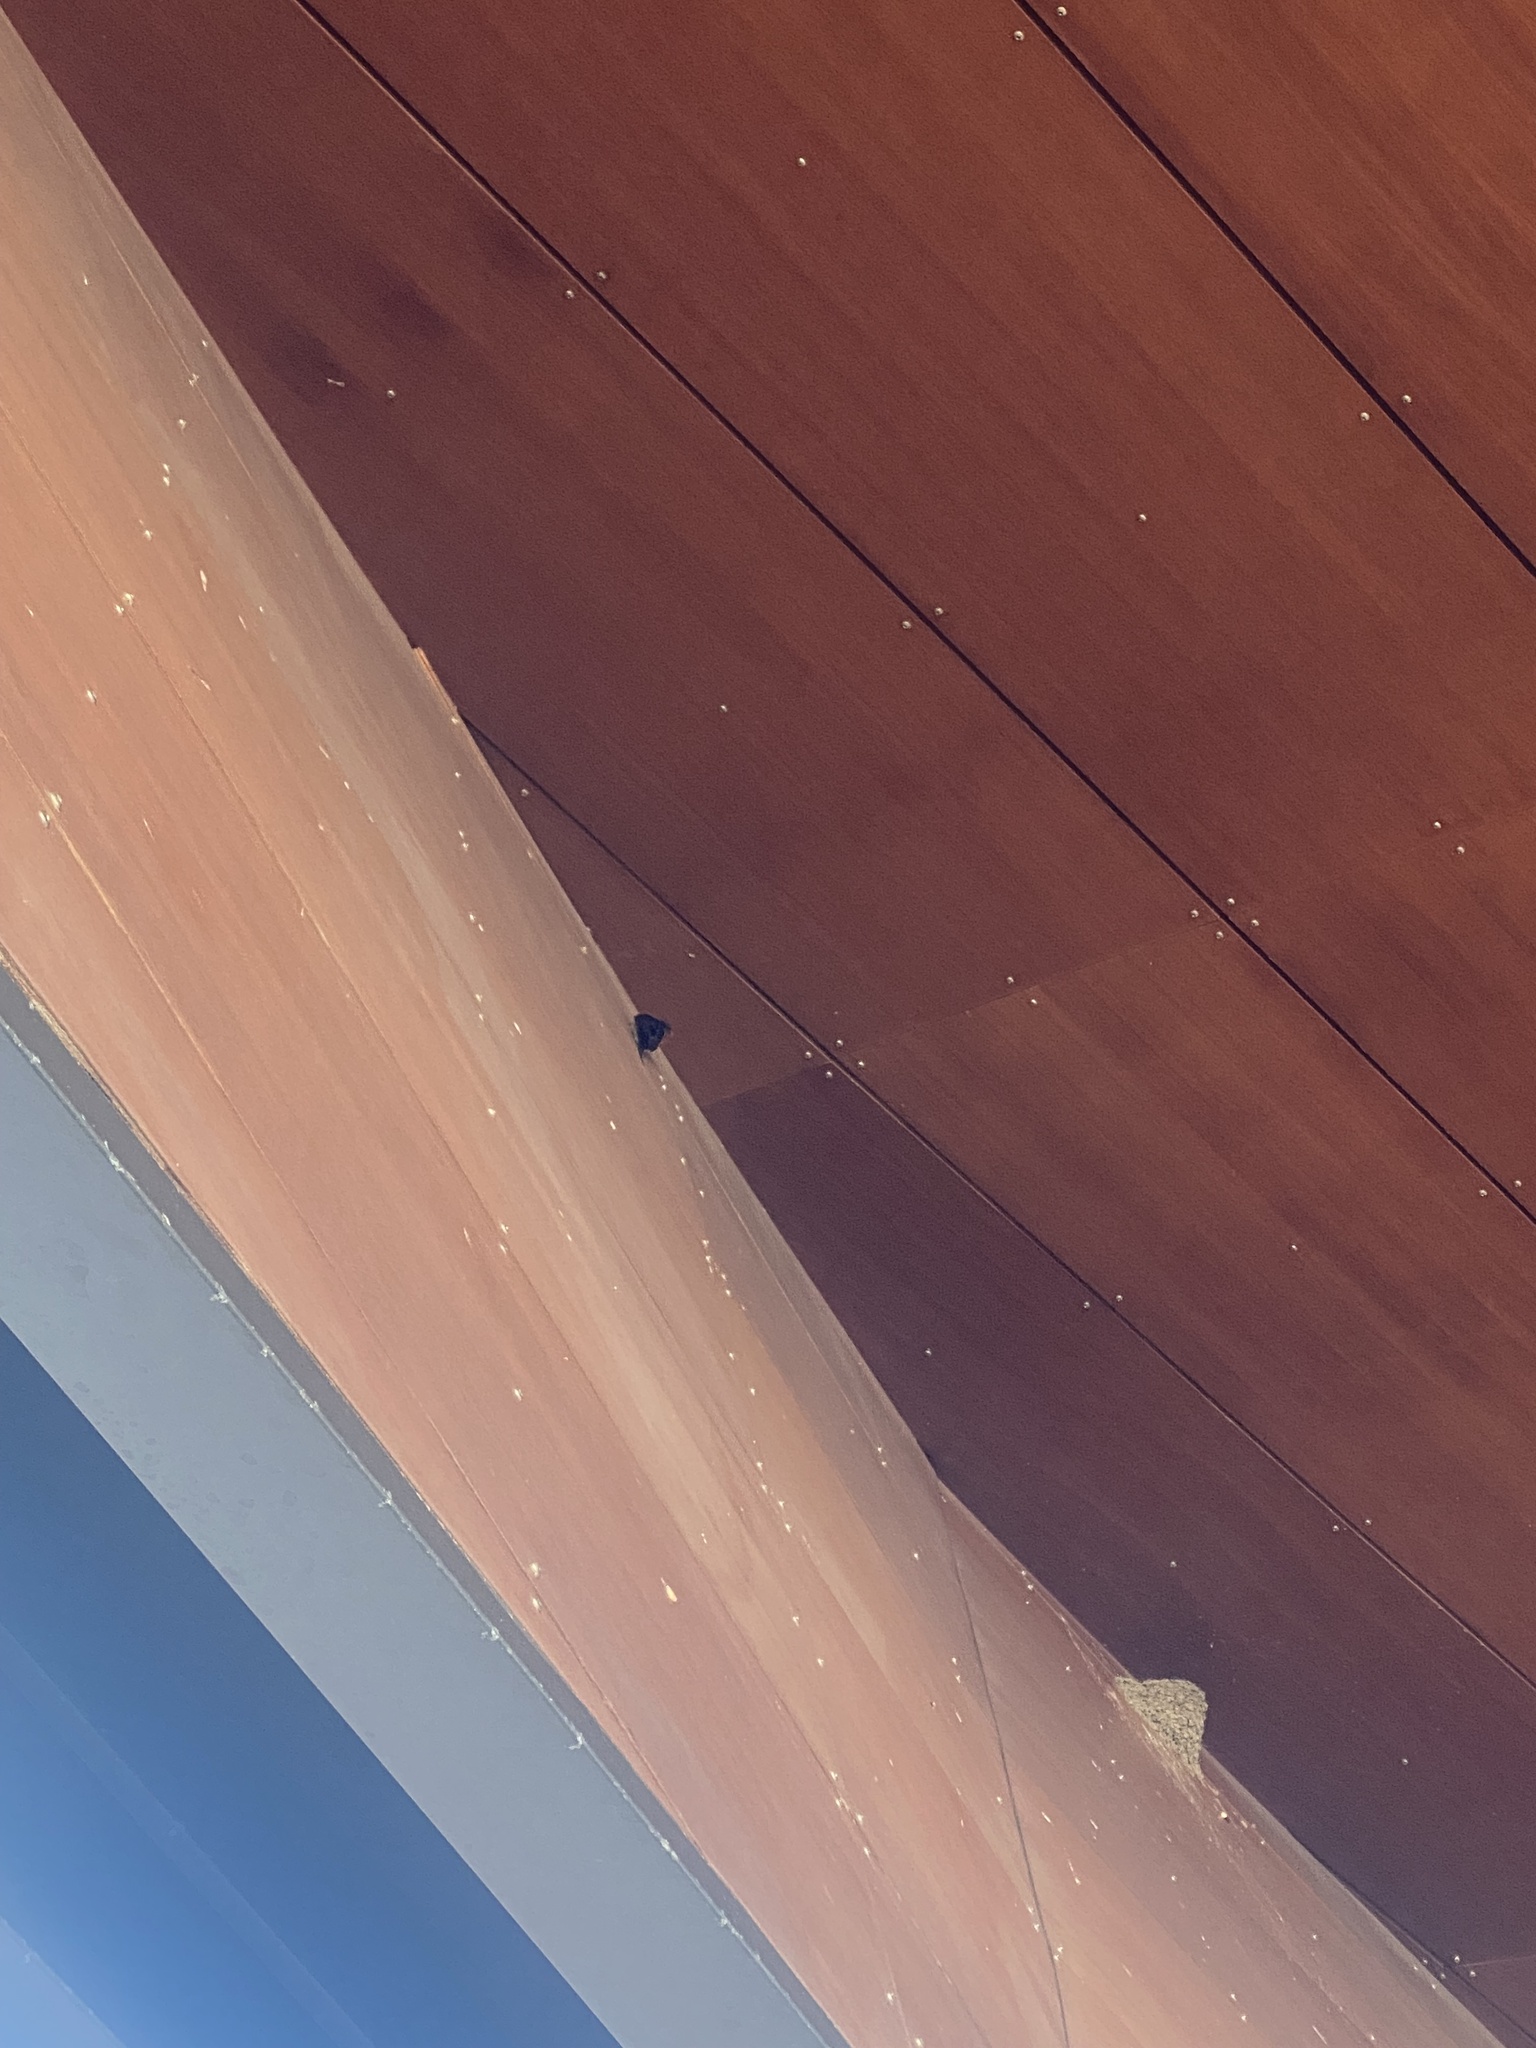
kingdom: Animalia
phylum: Chordata
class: Aves
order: Passeriformes
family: Hirundinidae
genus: Hirundo
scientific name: Hirundo neoxena
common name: Welcome swallow
